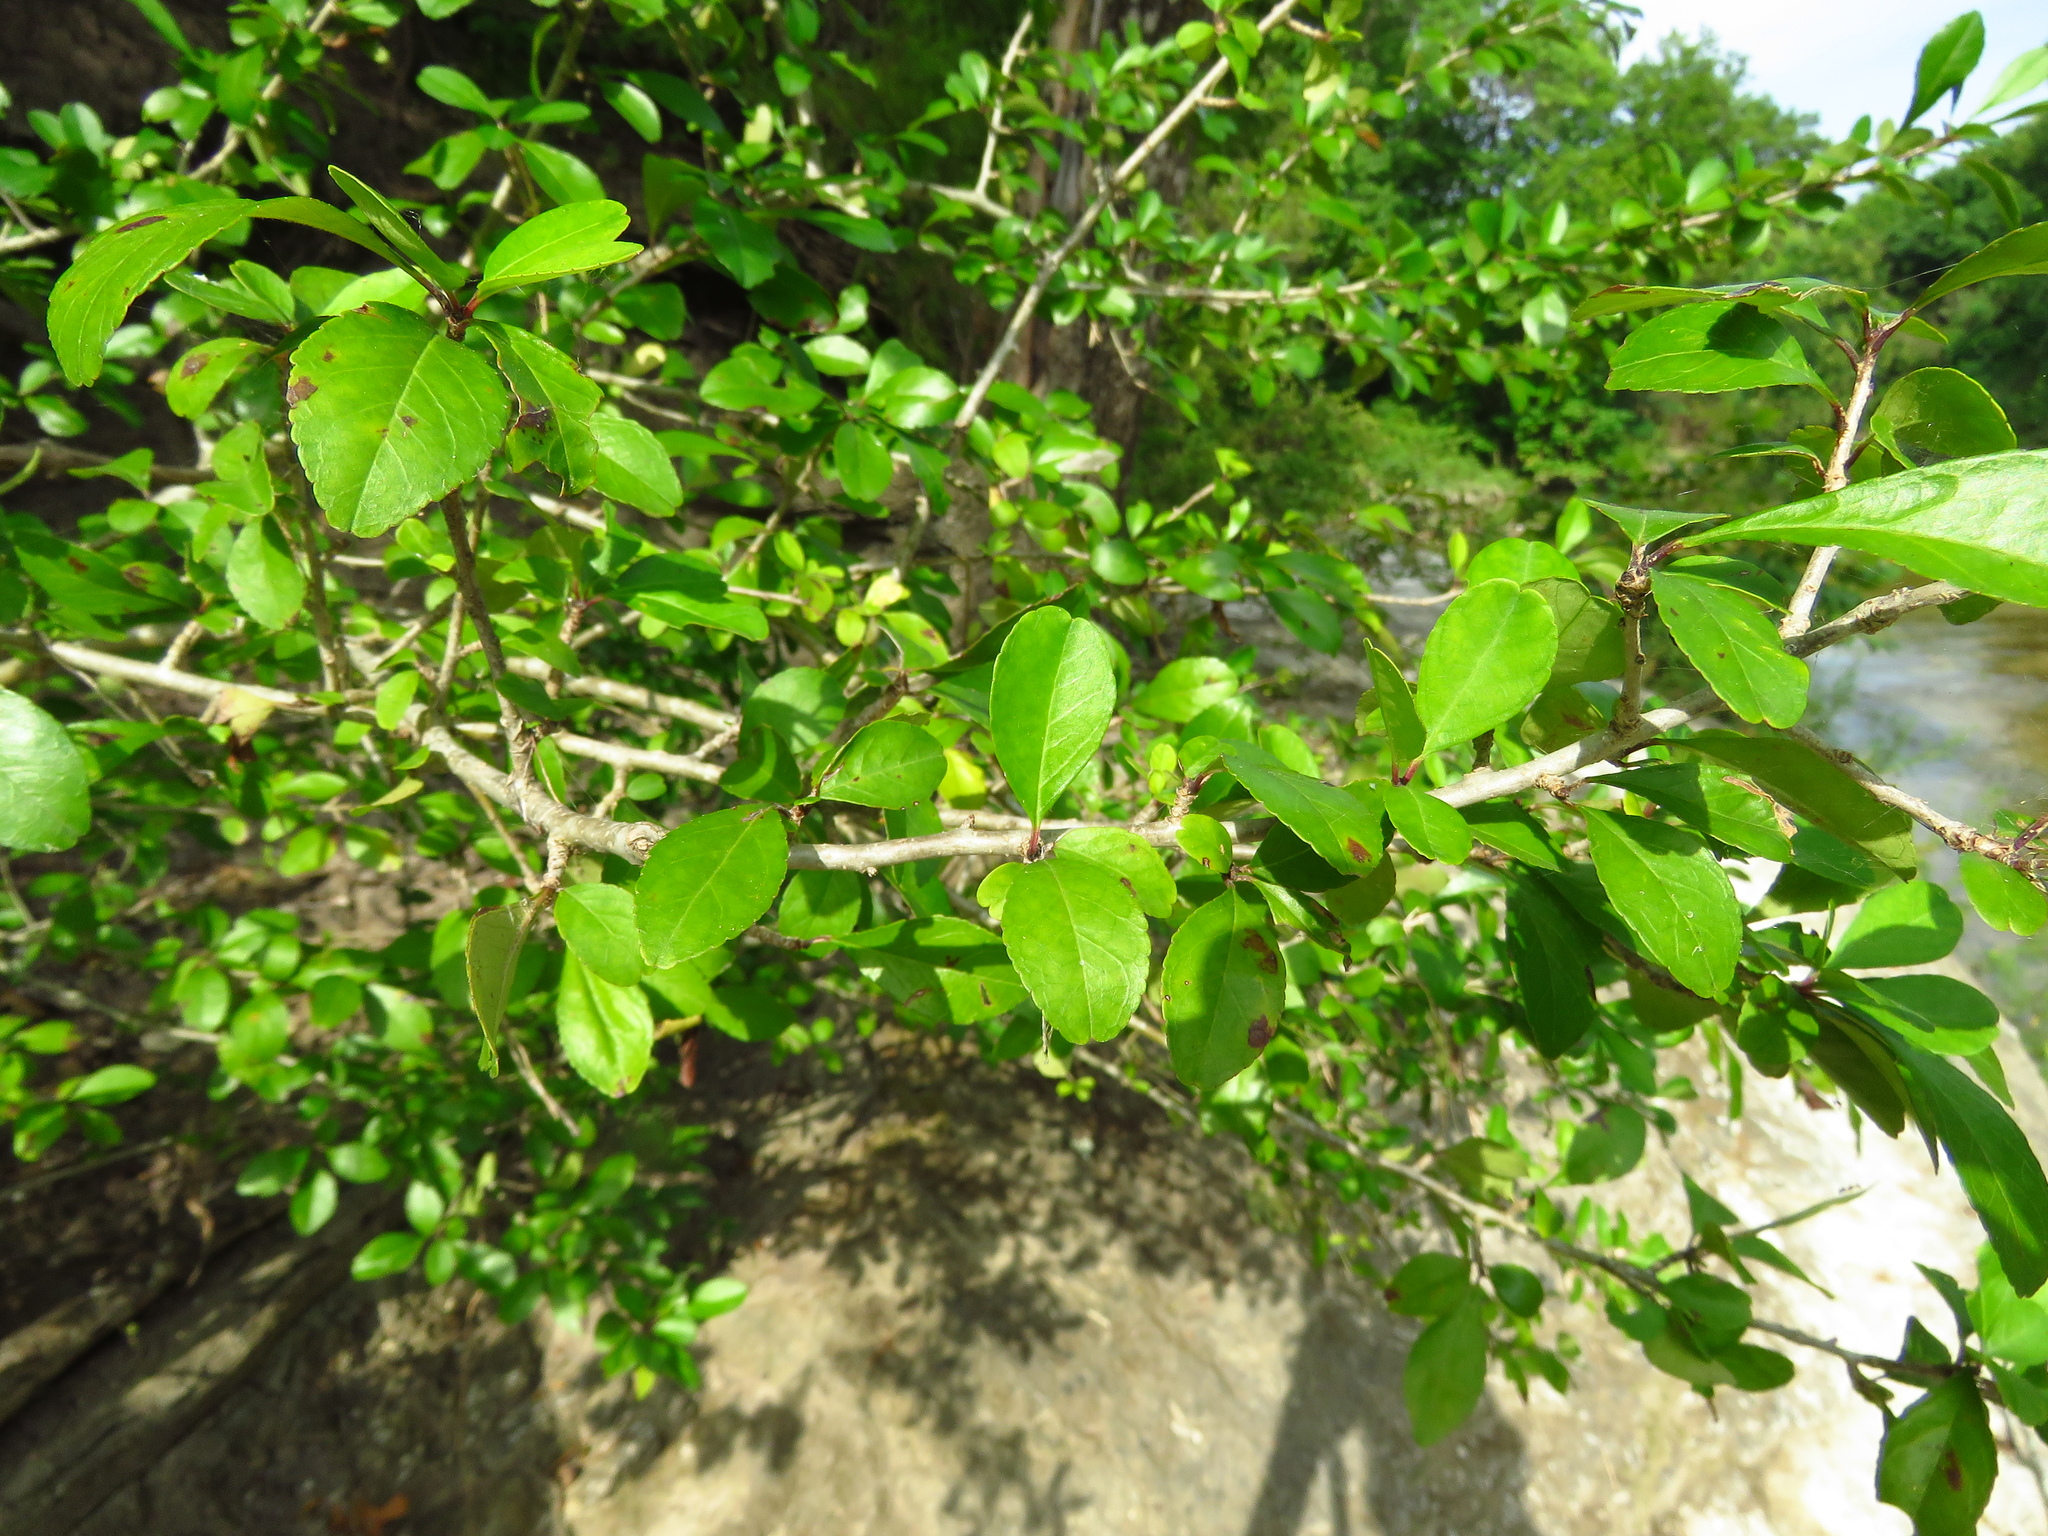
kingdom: Plantae
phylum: Tracheophyta
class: Magnoliopsida
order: Aquifoliales
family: Aquifoliaceae
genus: Ilex
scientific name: Ilex vomitoria
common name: Yaupon holly
